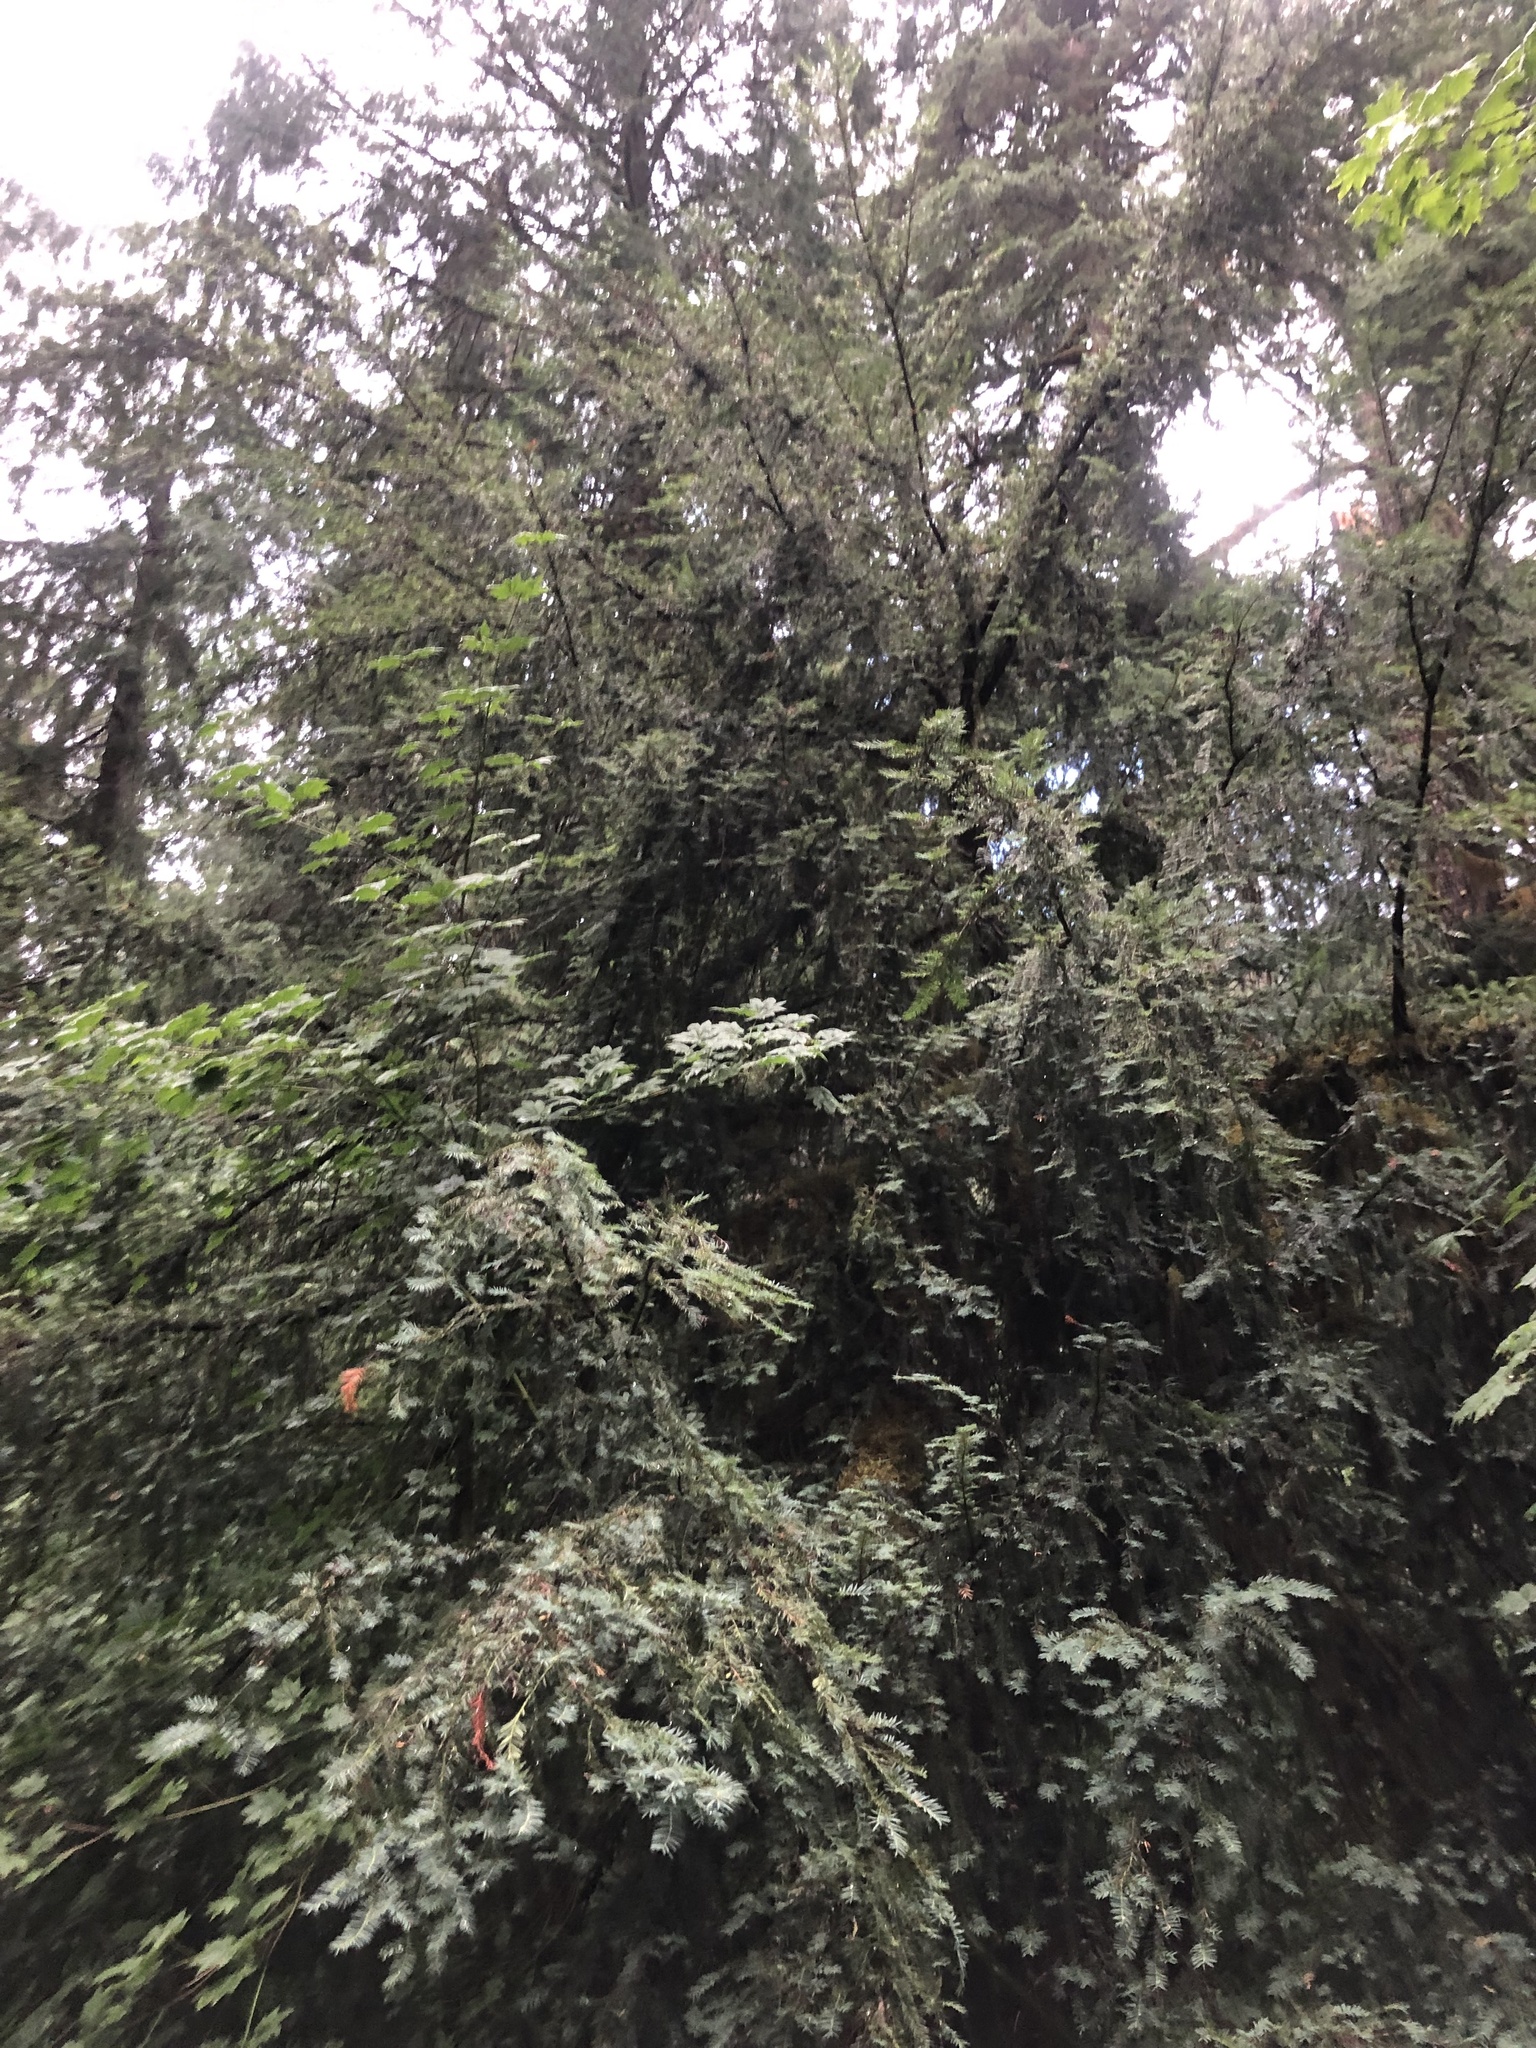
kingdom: Plantae
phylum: Tracheophyta
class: Pinopsida
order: Pinales
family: Taxaceae
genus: Taxus
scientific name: Taxus brevifolia
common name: Pacific yew
